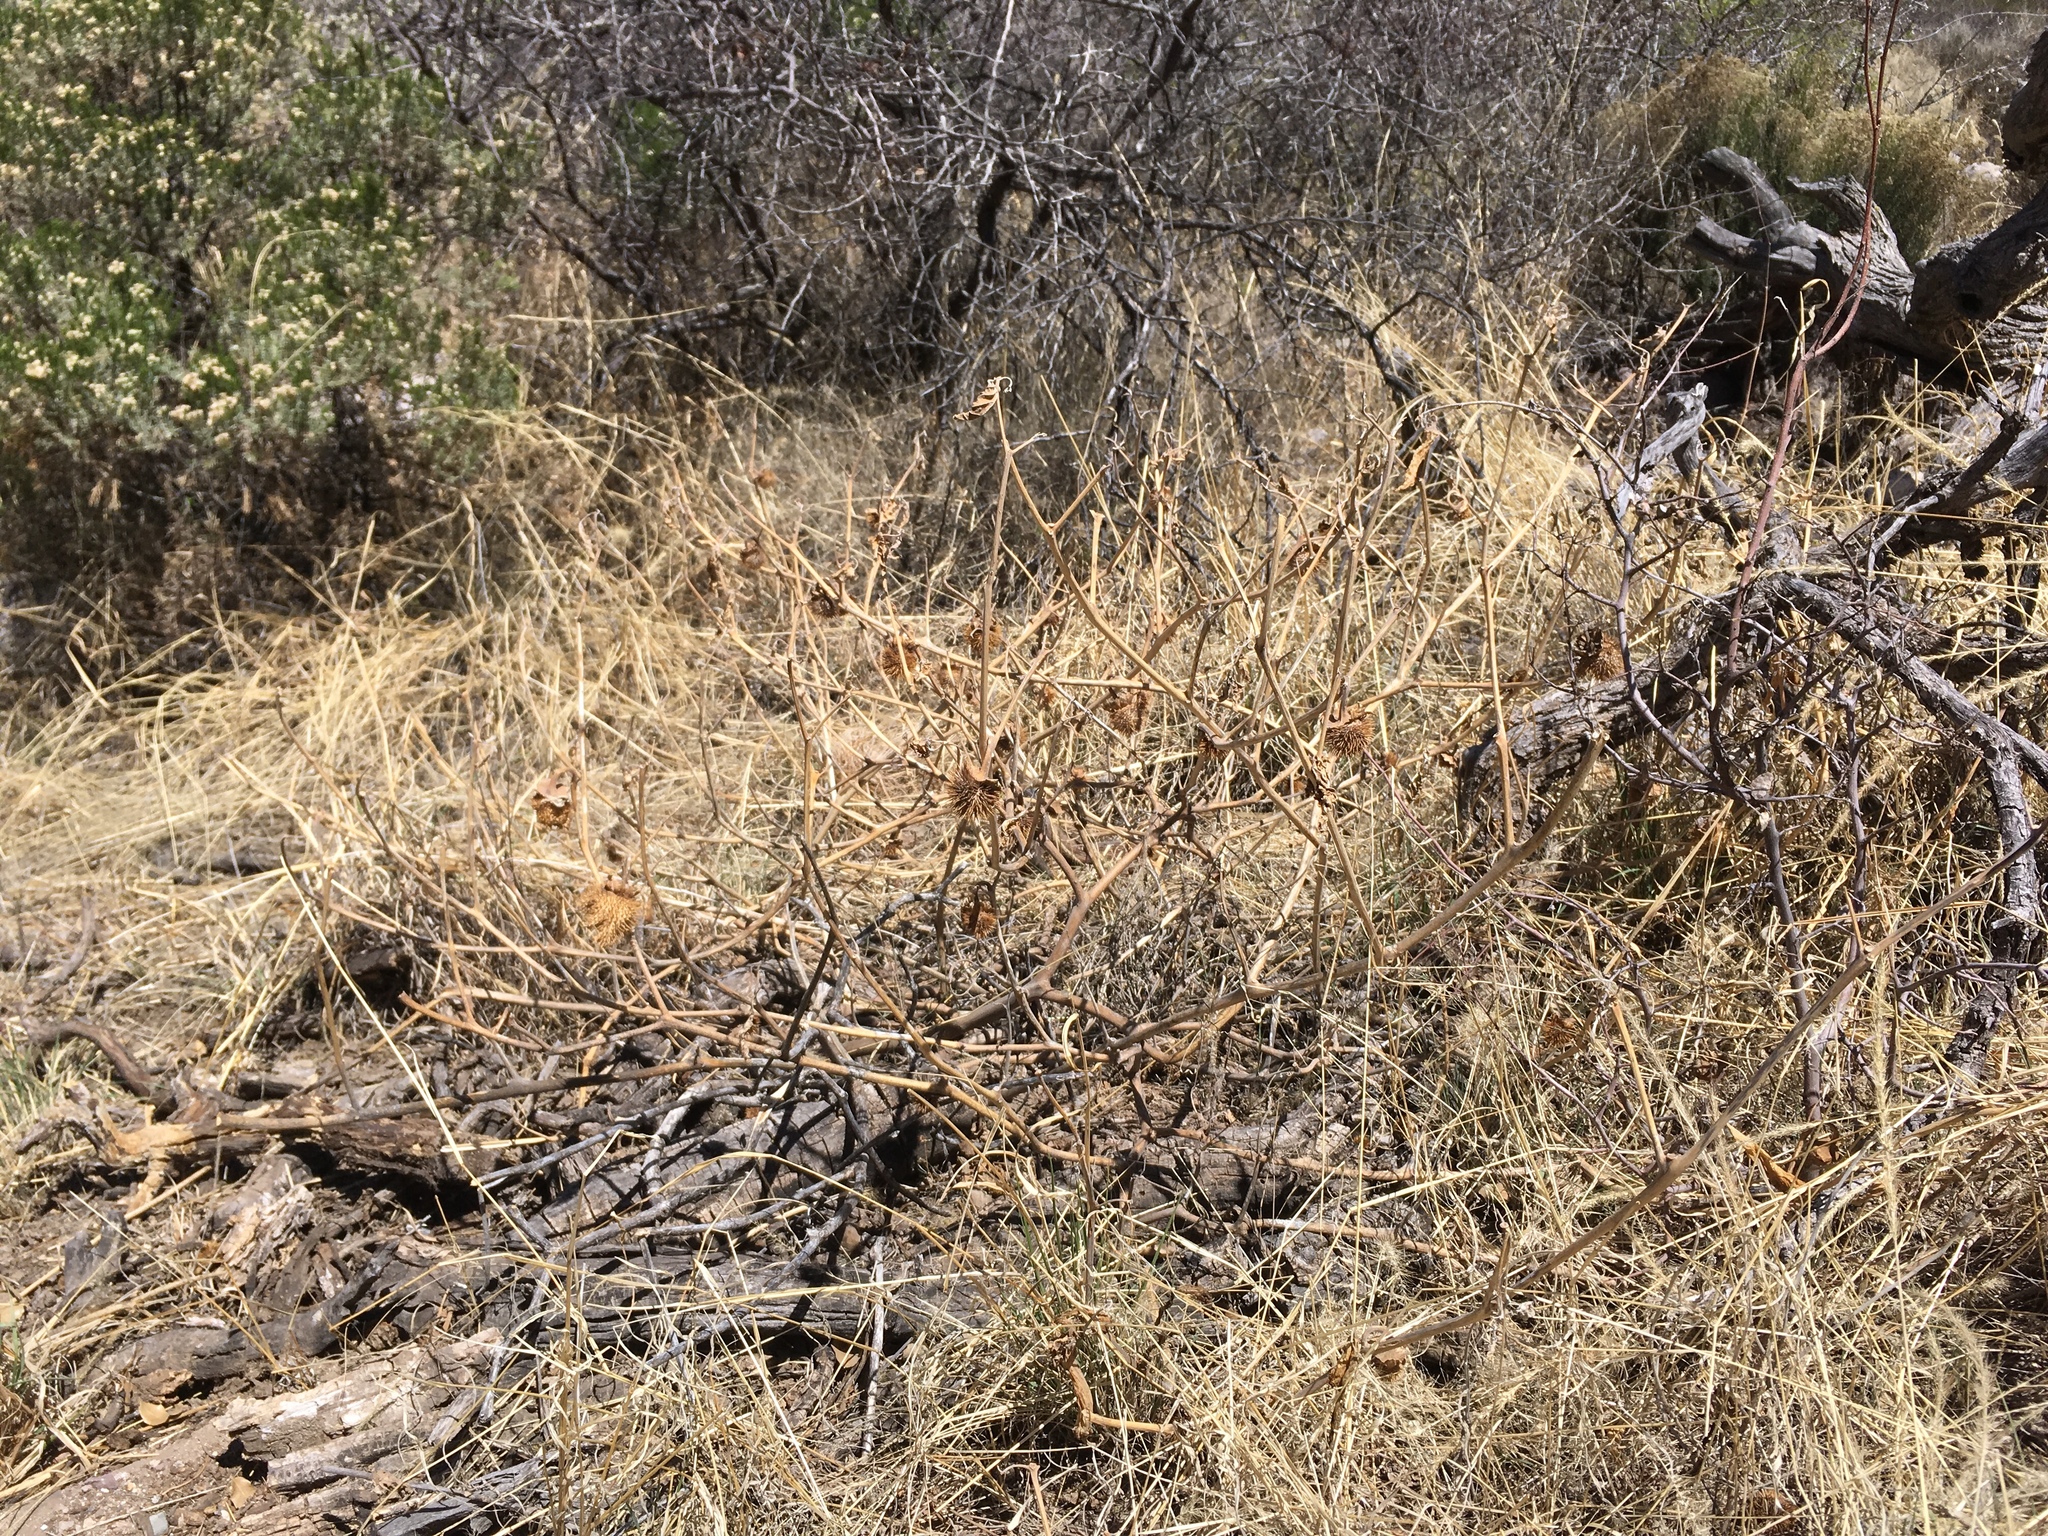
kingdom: Plantae
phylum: Tracheophyta
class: Magnoliopsida
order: Solanales
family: Solanaceae
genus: Datura
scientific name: Datura wrightii
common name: Sacred thorn-apple
